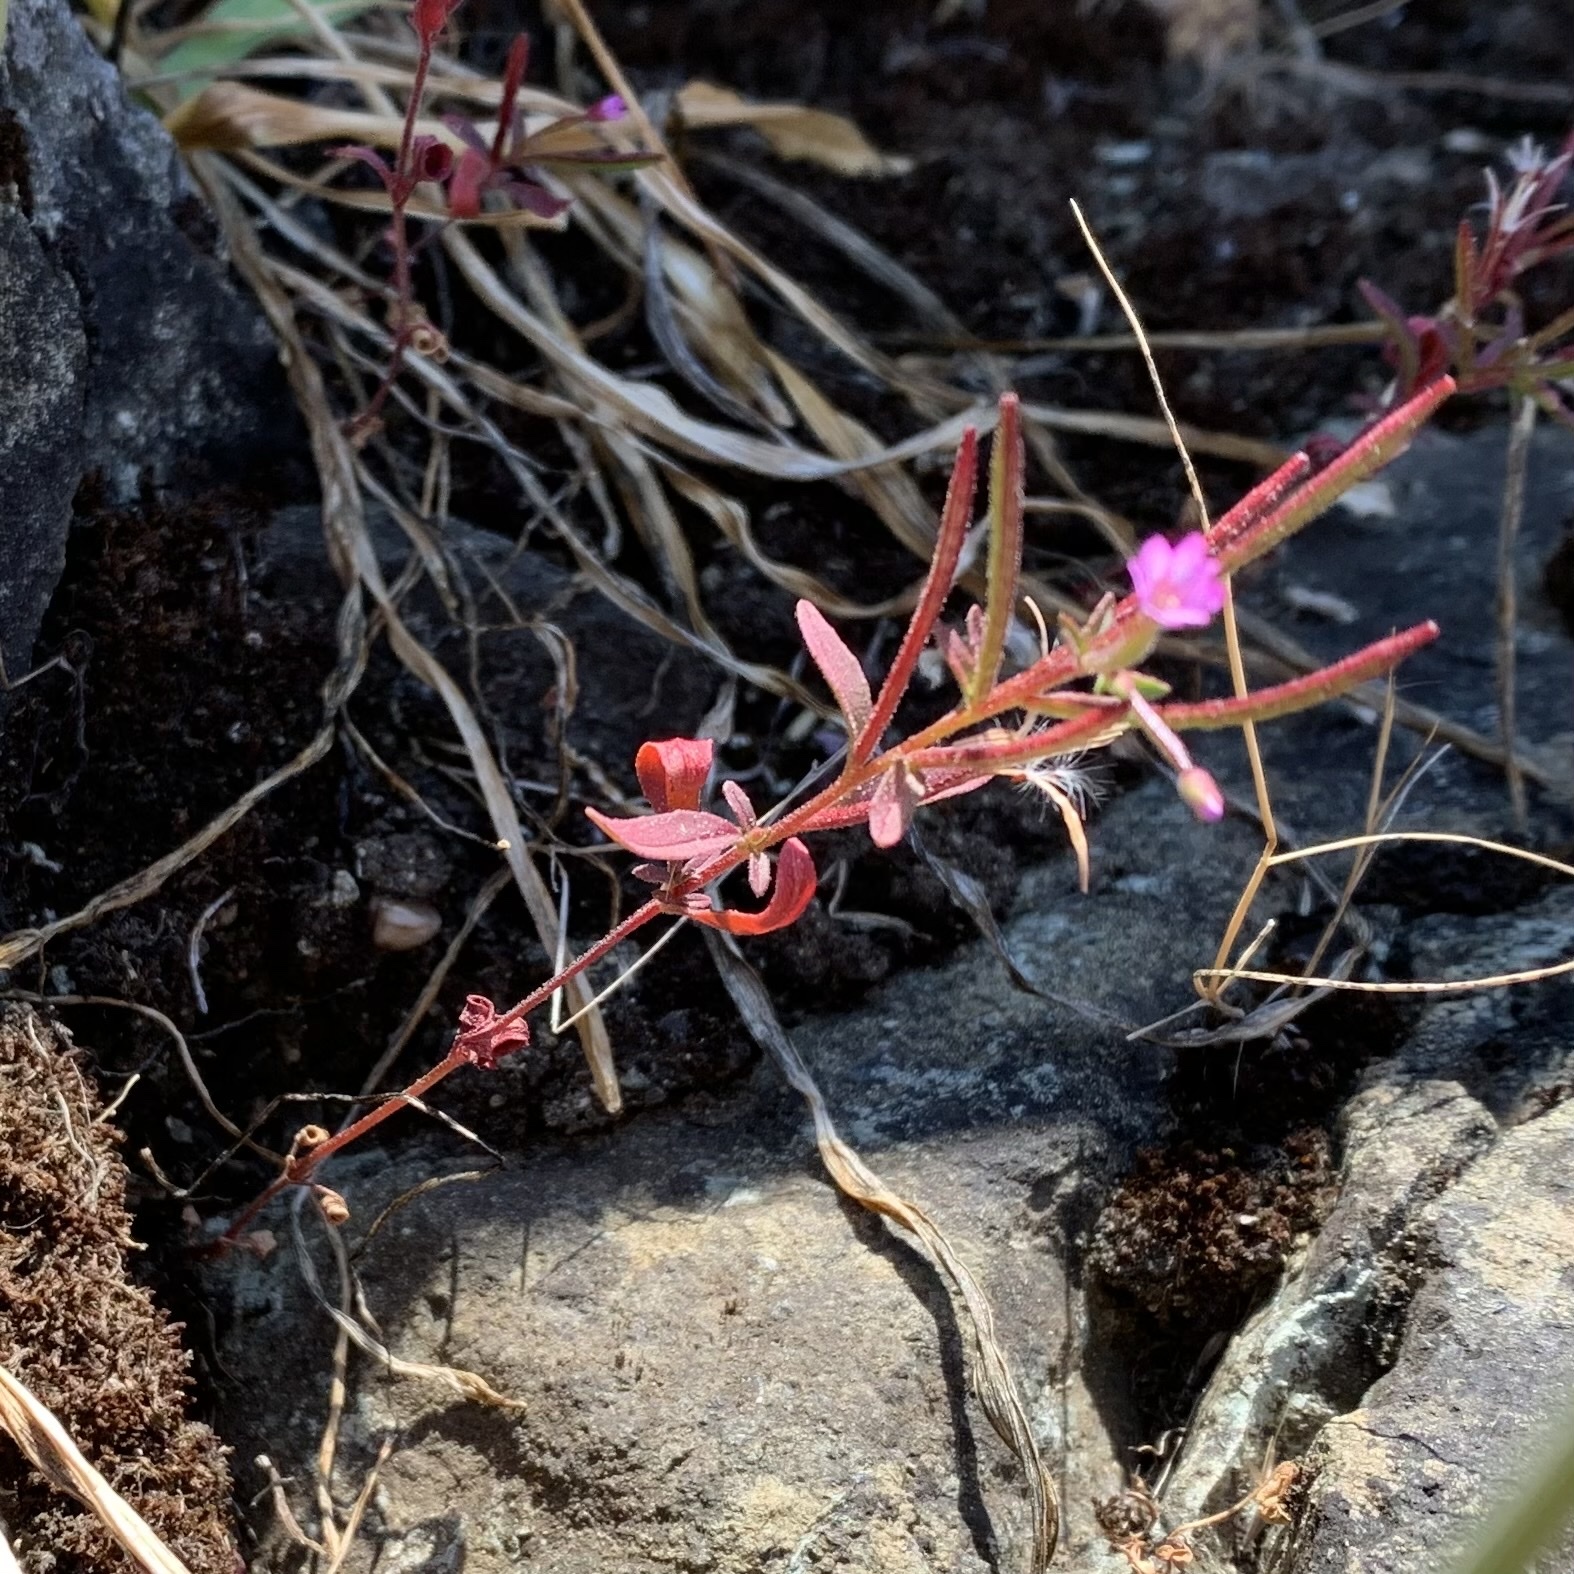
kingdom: Plantae
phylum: Tracheophyta
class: Magnoliopsida
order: Myrtales
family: Onagraceae
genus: Epilobium
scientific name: Epilobium minutum
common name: Chaparral willowherb
